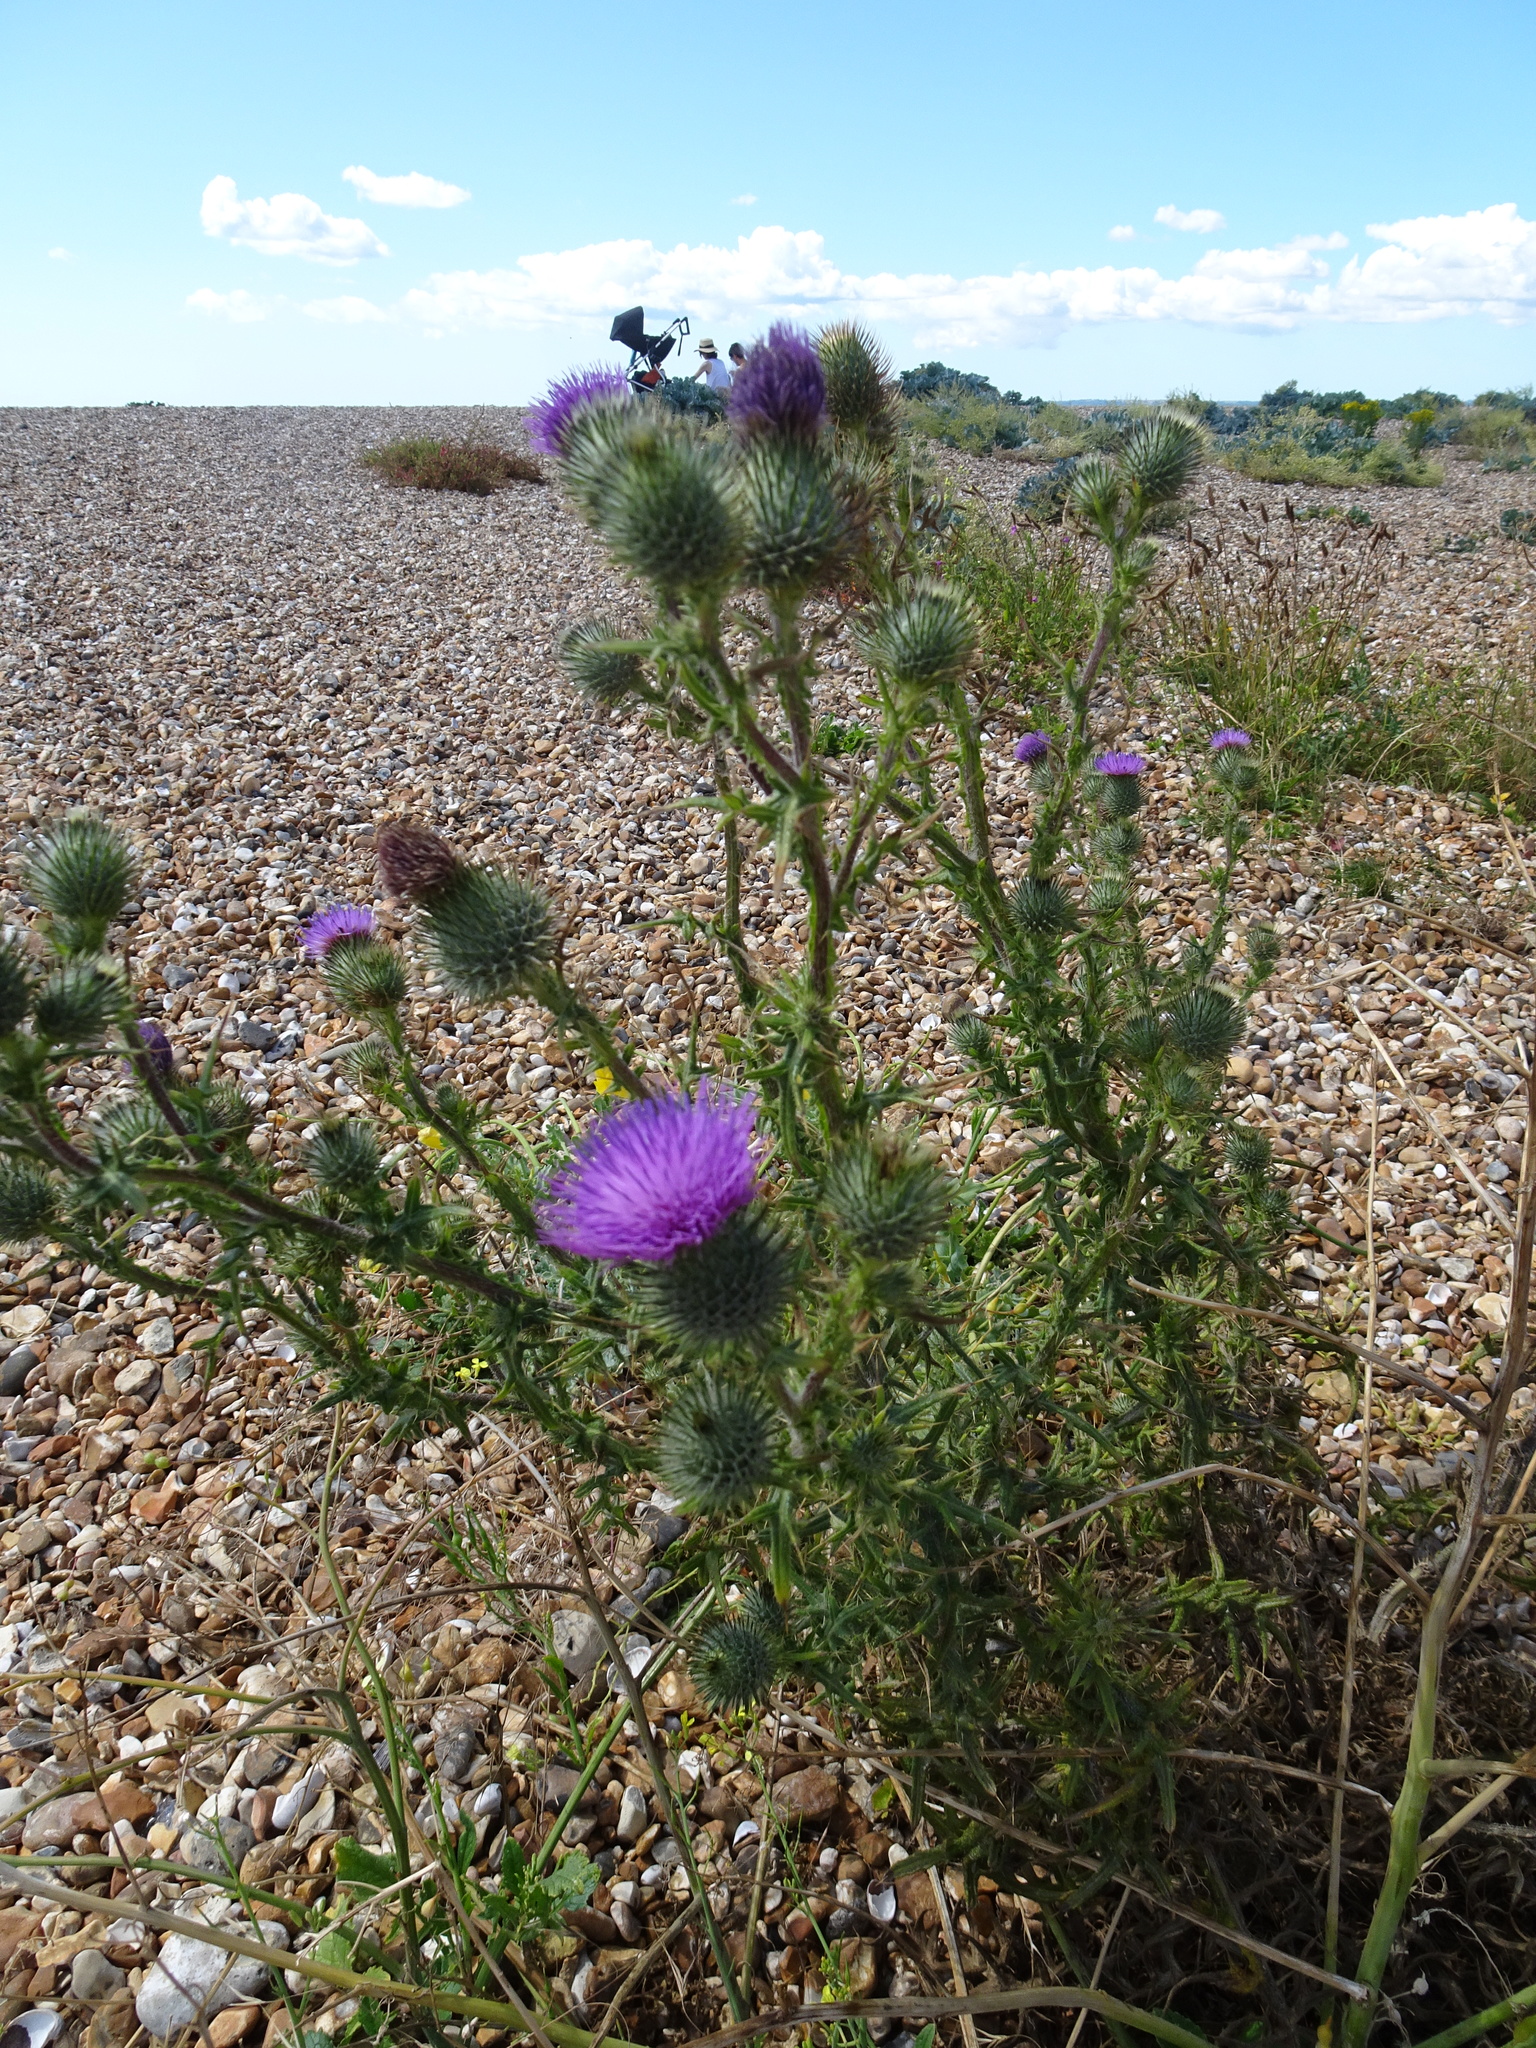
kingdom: Plantae
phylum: Tracheophyta
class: Magnoliopsida
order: Asterales
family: Asteraceae
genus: Cirsium
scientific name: Cirsium vulgare
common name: Bull thistle
